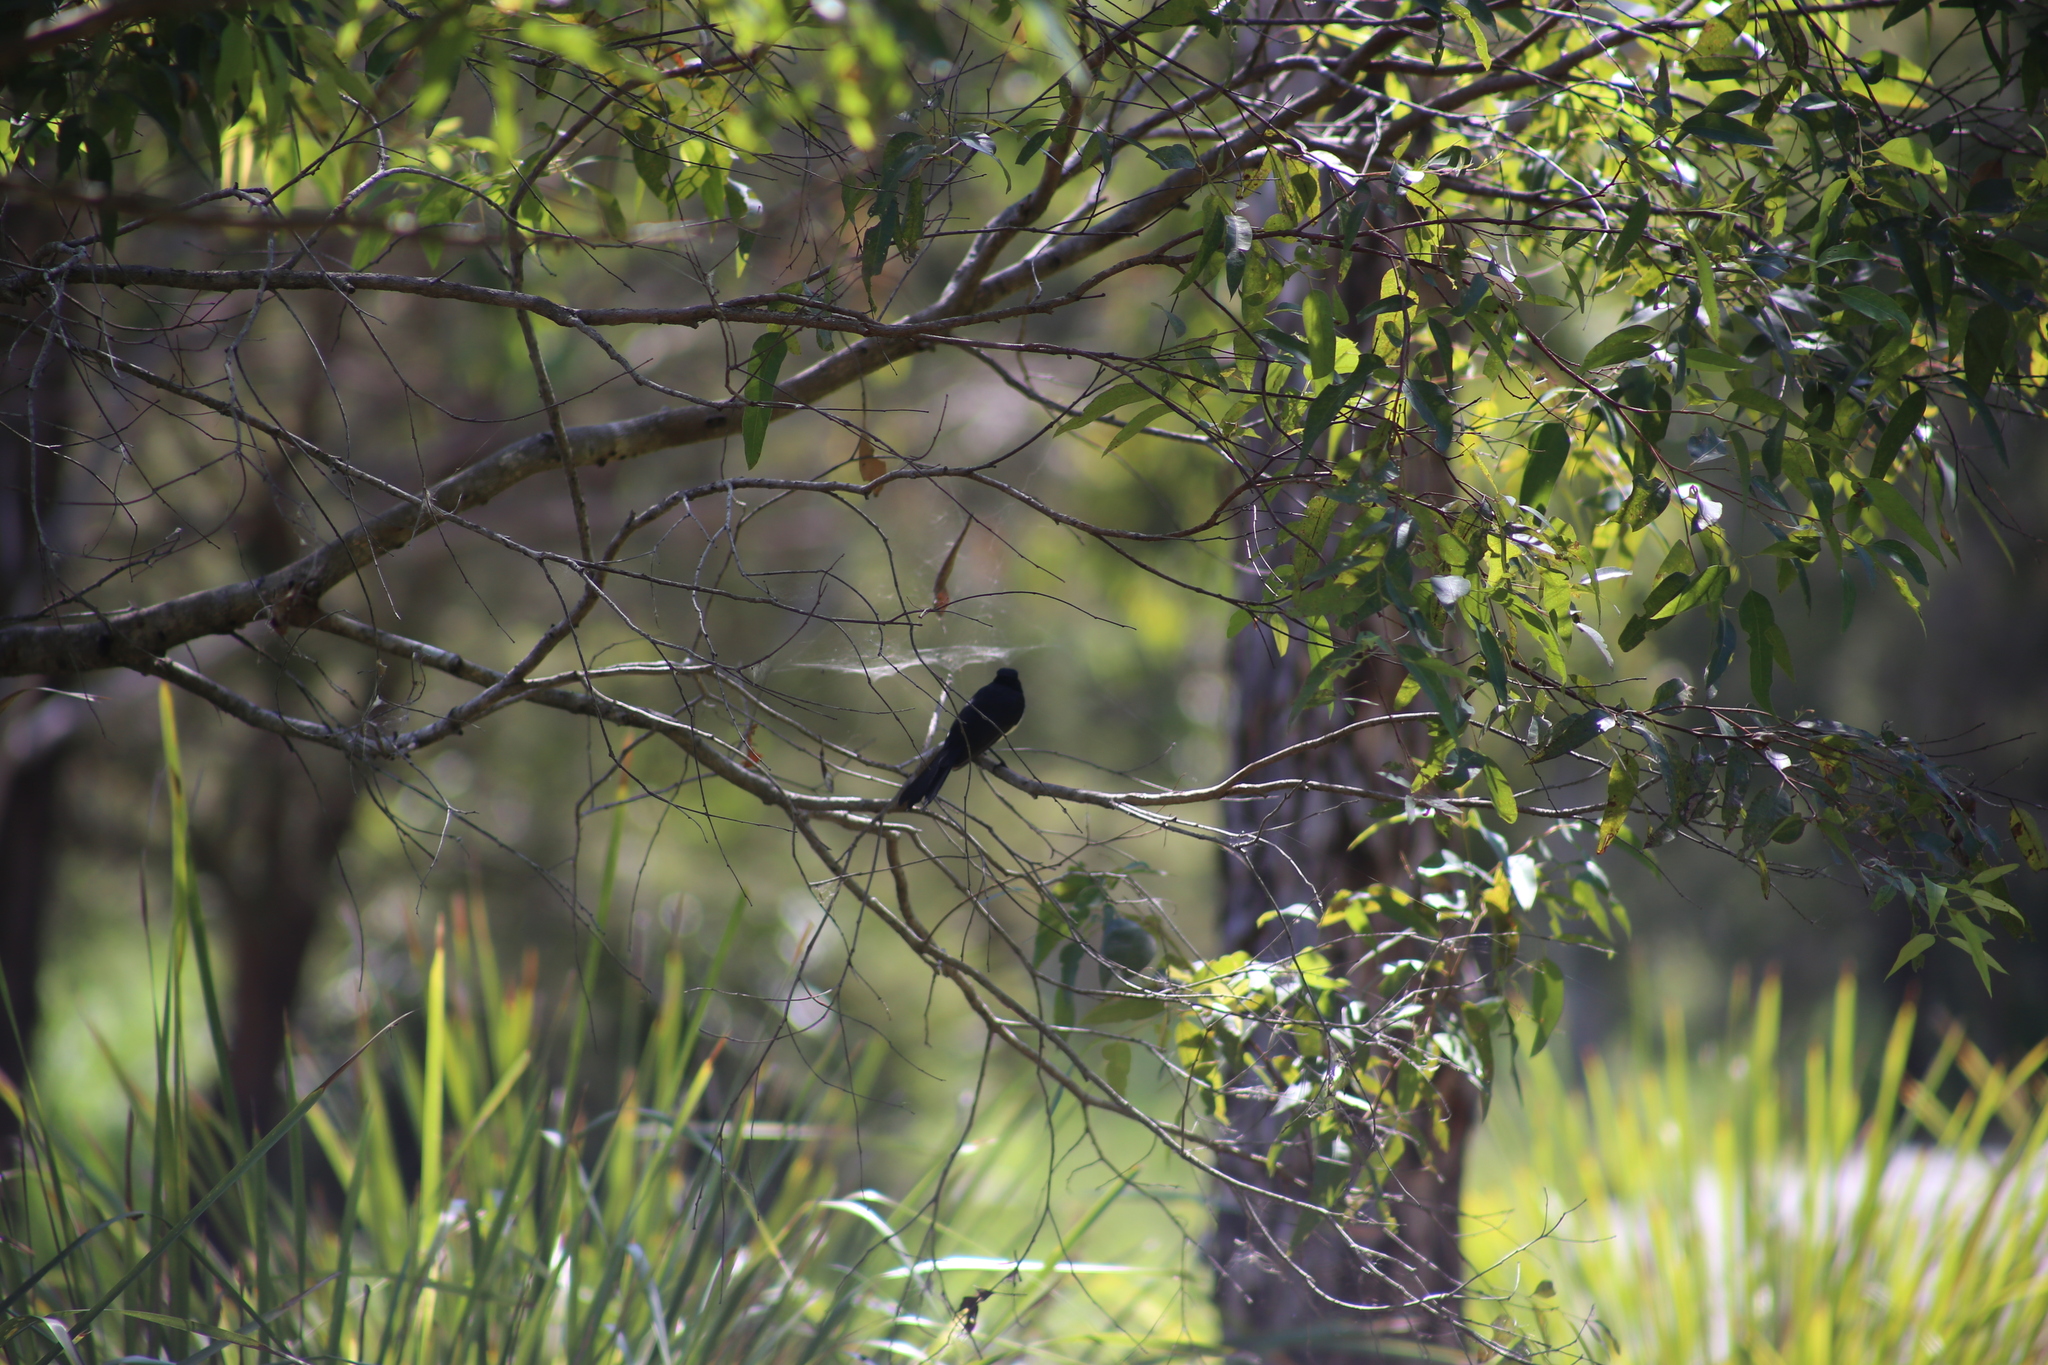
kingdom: Animalia
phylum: Chordata
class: Aves
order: Passeriformes
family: Rhipiduridae
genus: Rhipidura
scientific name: Rhipidura leucophrys
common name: Willie wagtail
